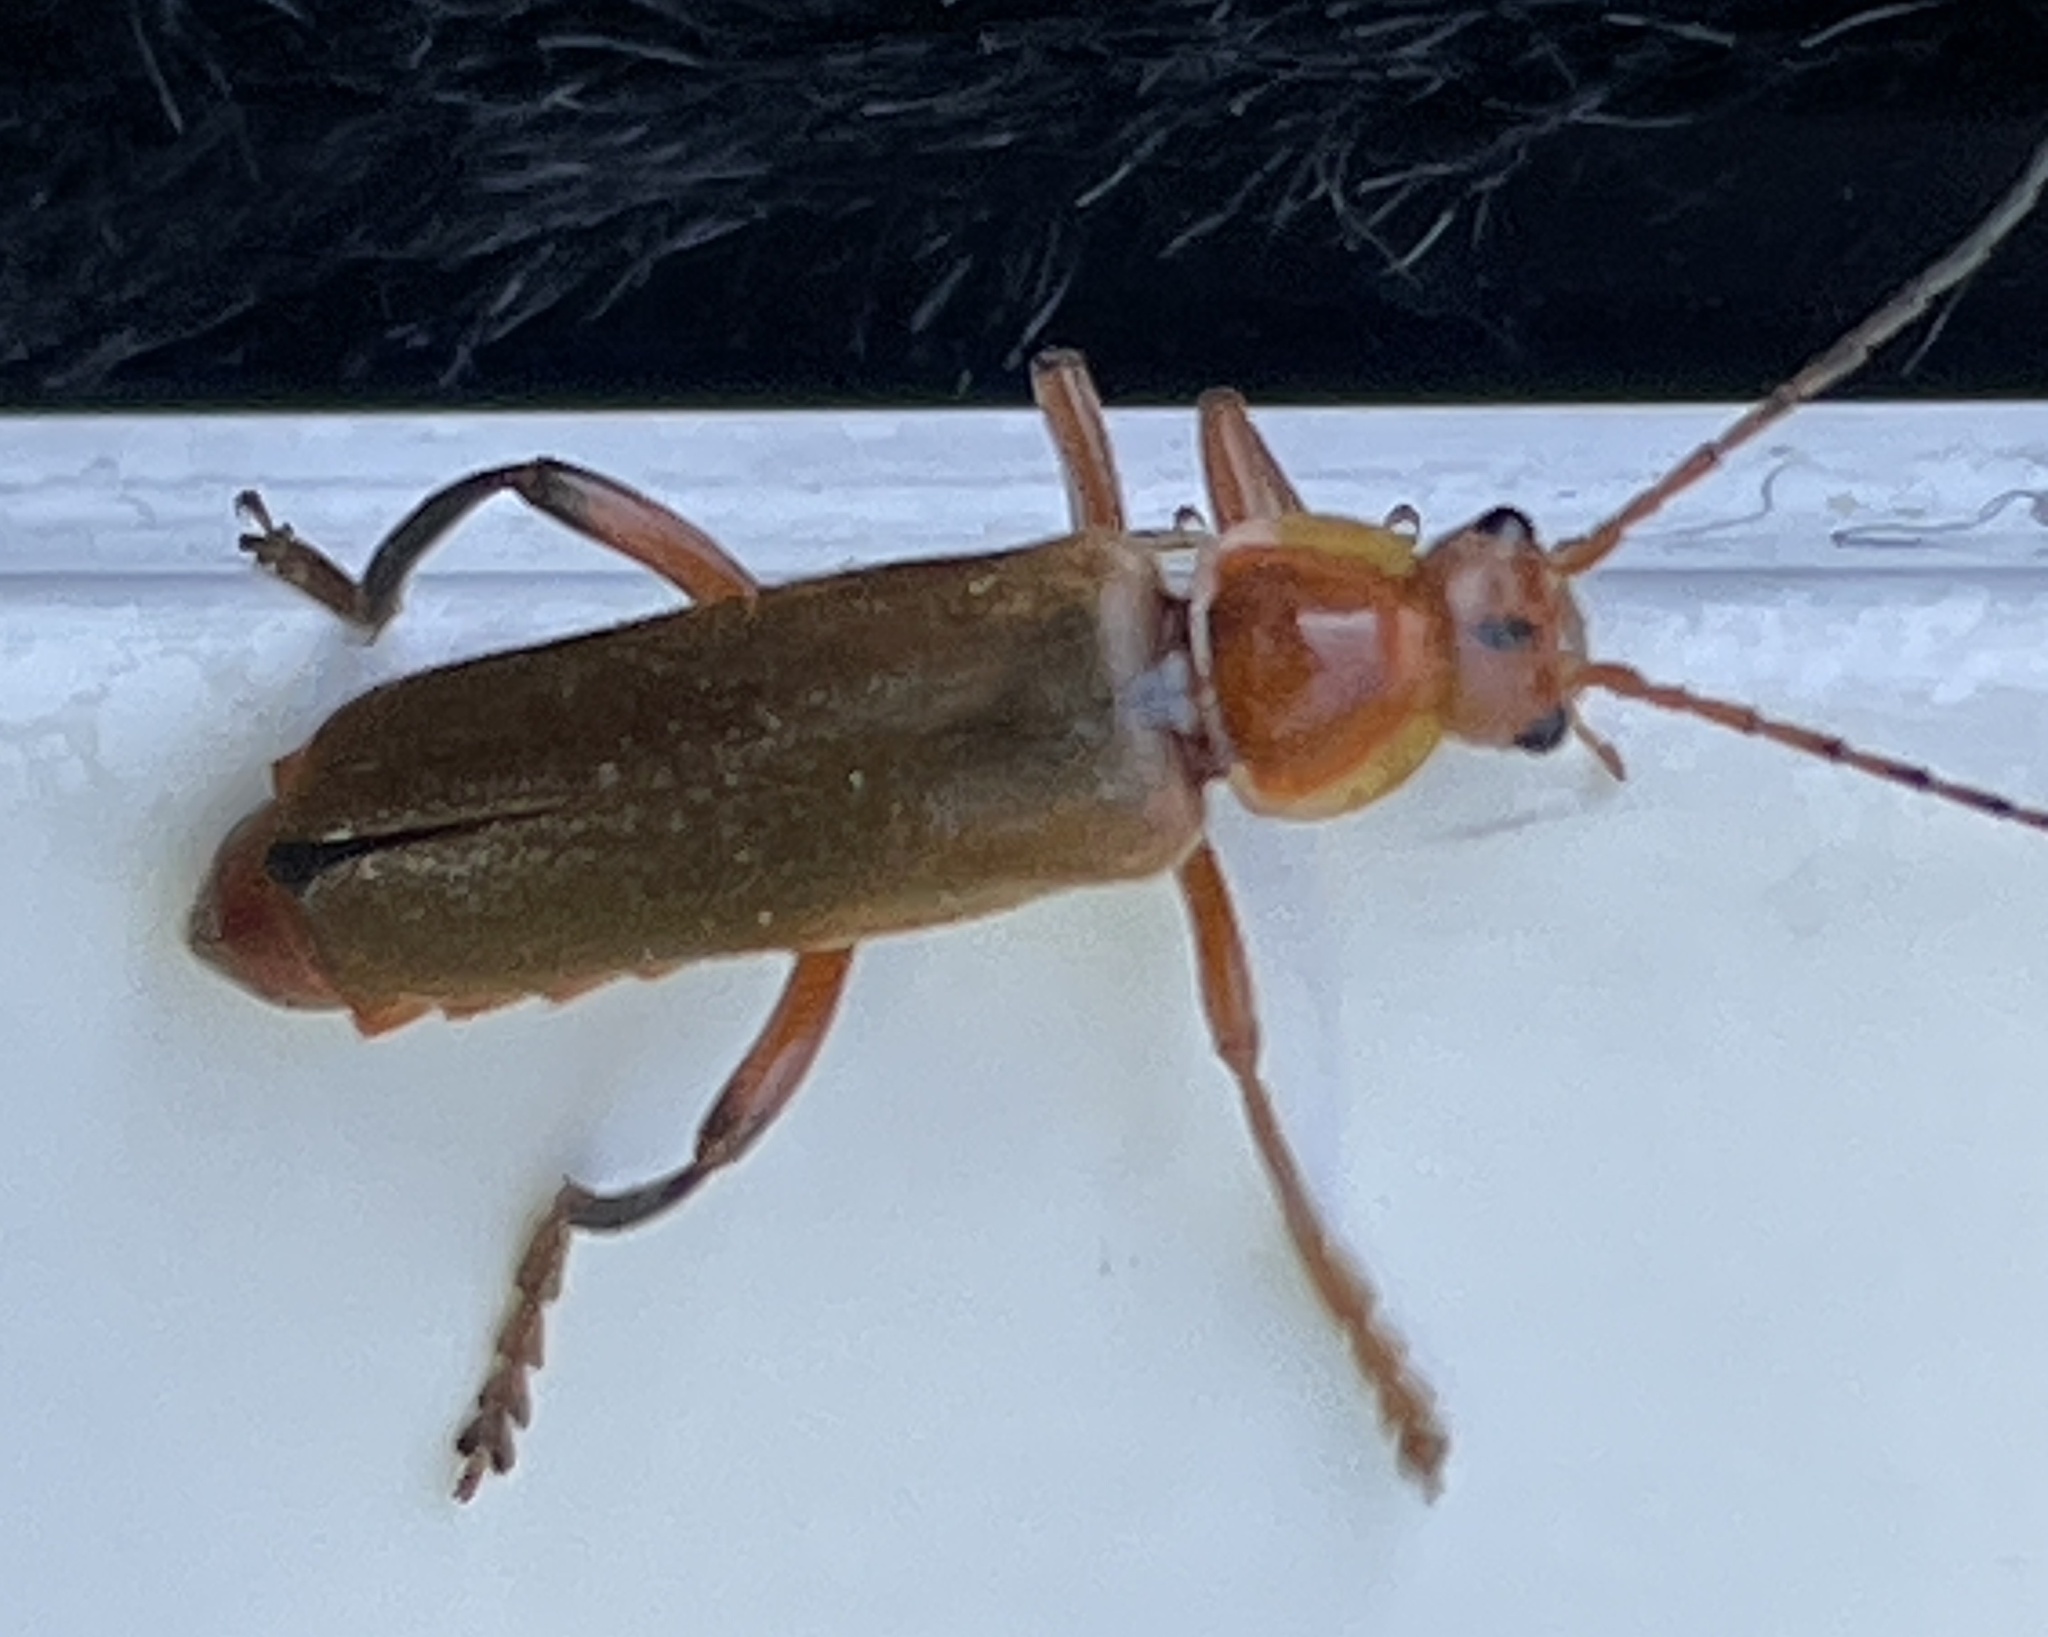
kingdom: Animalia
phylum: Arthropoda
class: Insecta
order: Coleoptera
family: Cantharidae
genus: Cantharis
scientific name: Cantharis livida
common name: Livid soldier beetle
